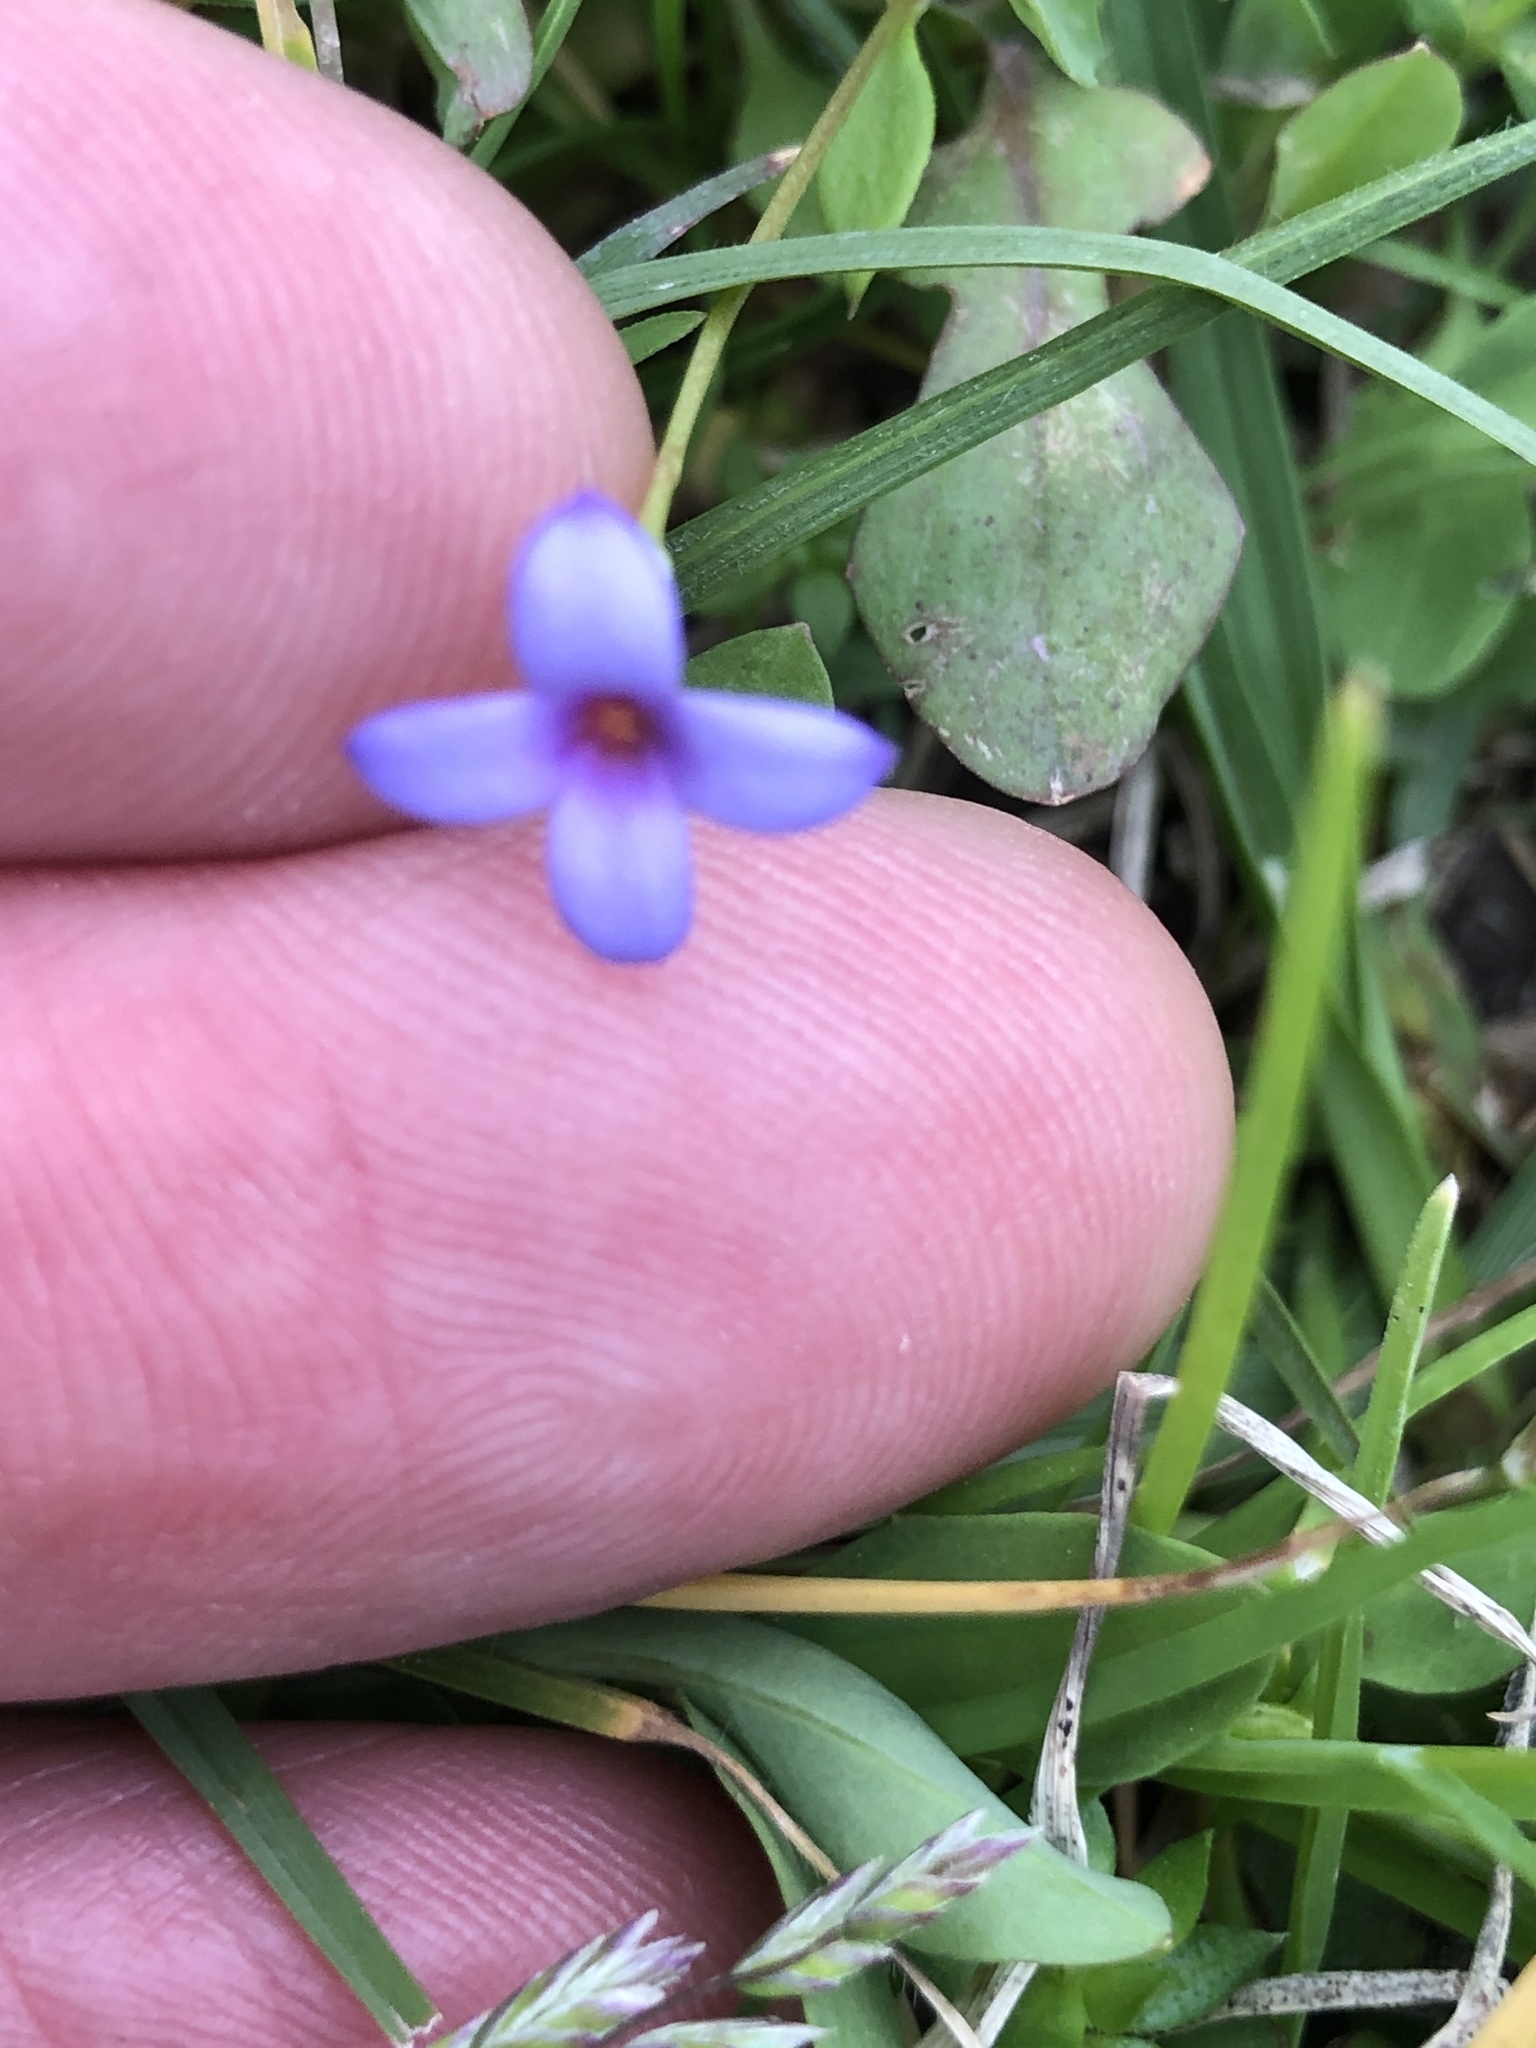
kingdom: Plantae
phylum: Tracheophyta
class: Magnoliopsida
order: Gentianales
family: Rubiaceae
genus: Houstonia
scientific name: Houstonia pusilla
